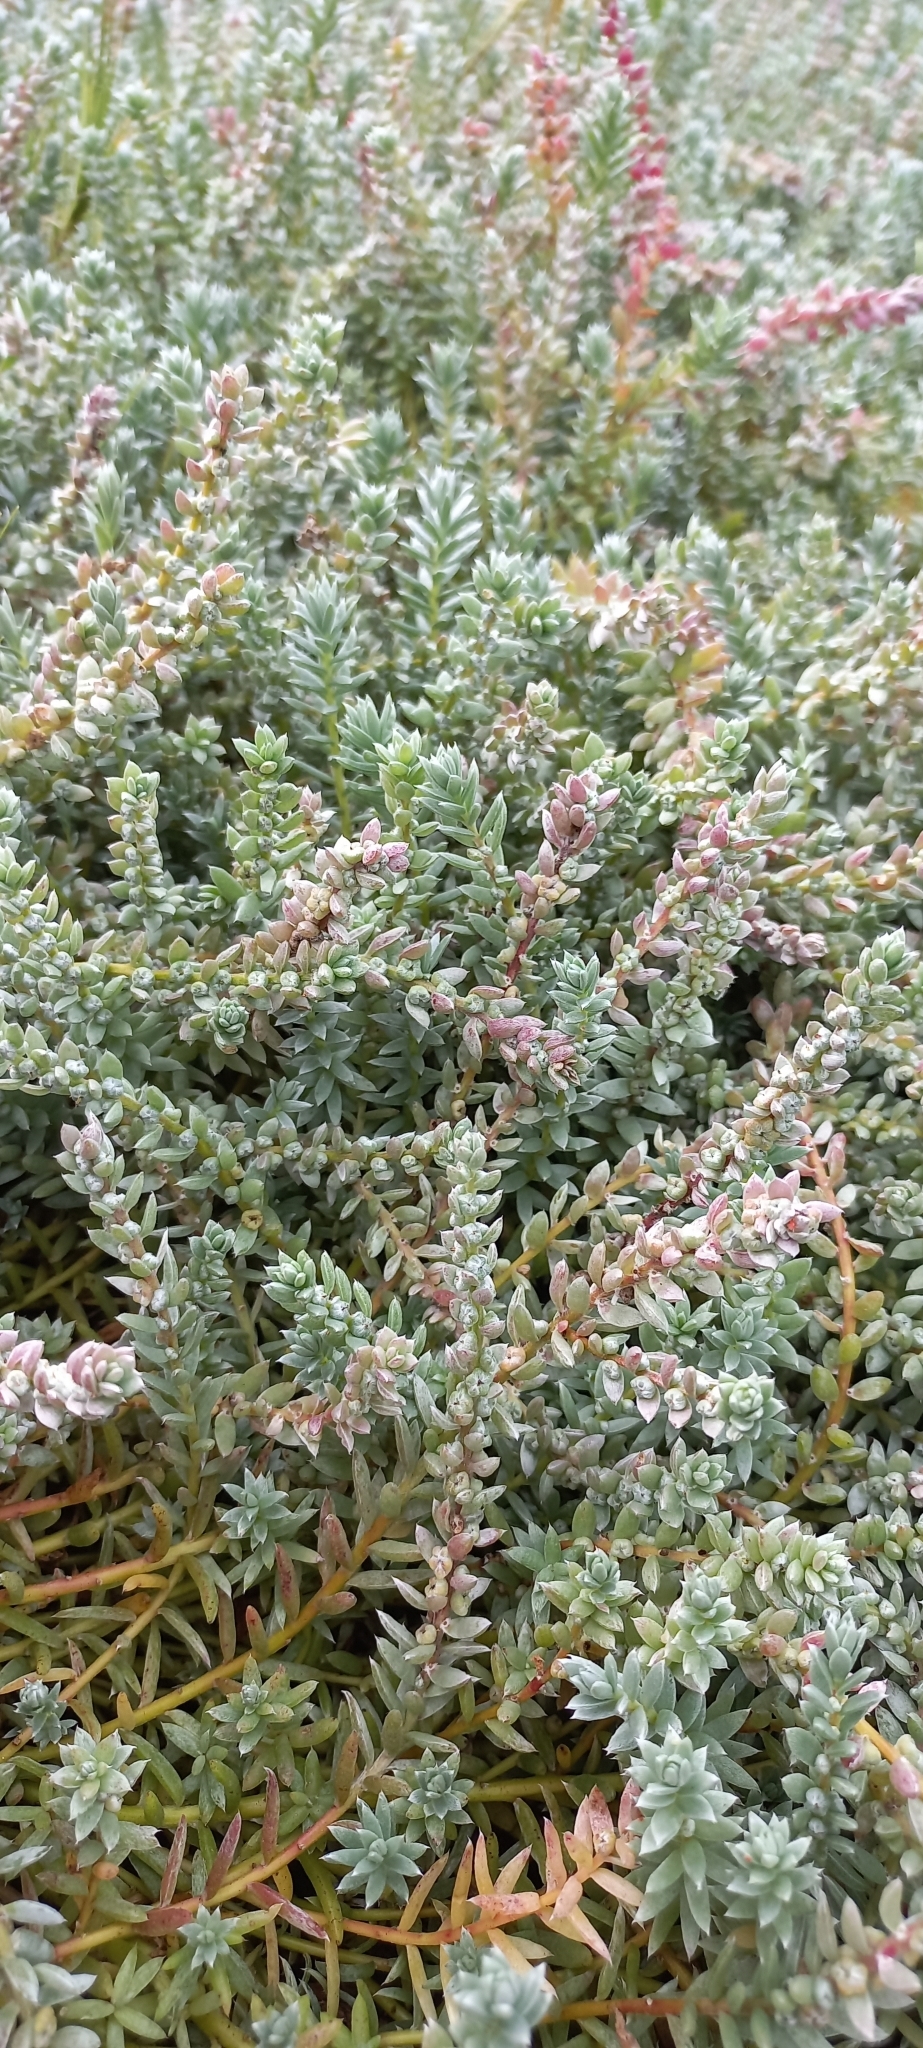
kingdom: Plantae
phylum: Tracheophyta
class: Magnoliopsida
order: Caryophyllales
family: Amaranthaceae
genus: Chenolea
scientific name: Chenolea diffusa
